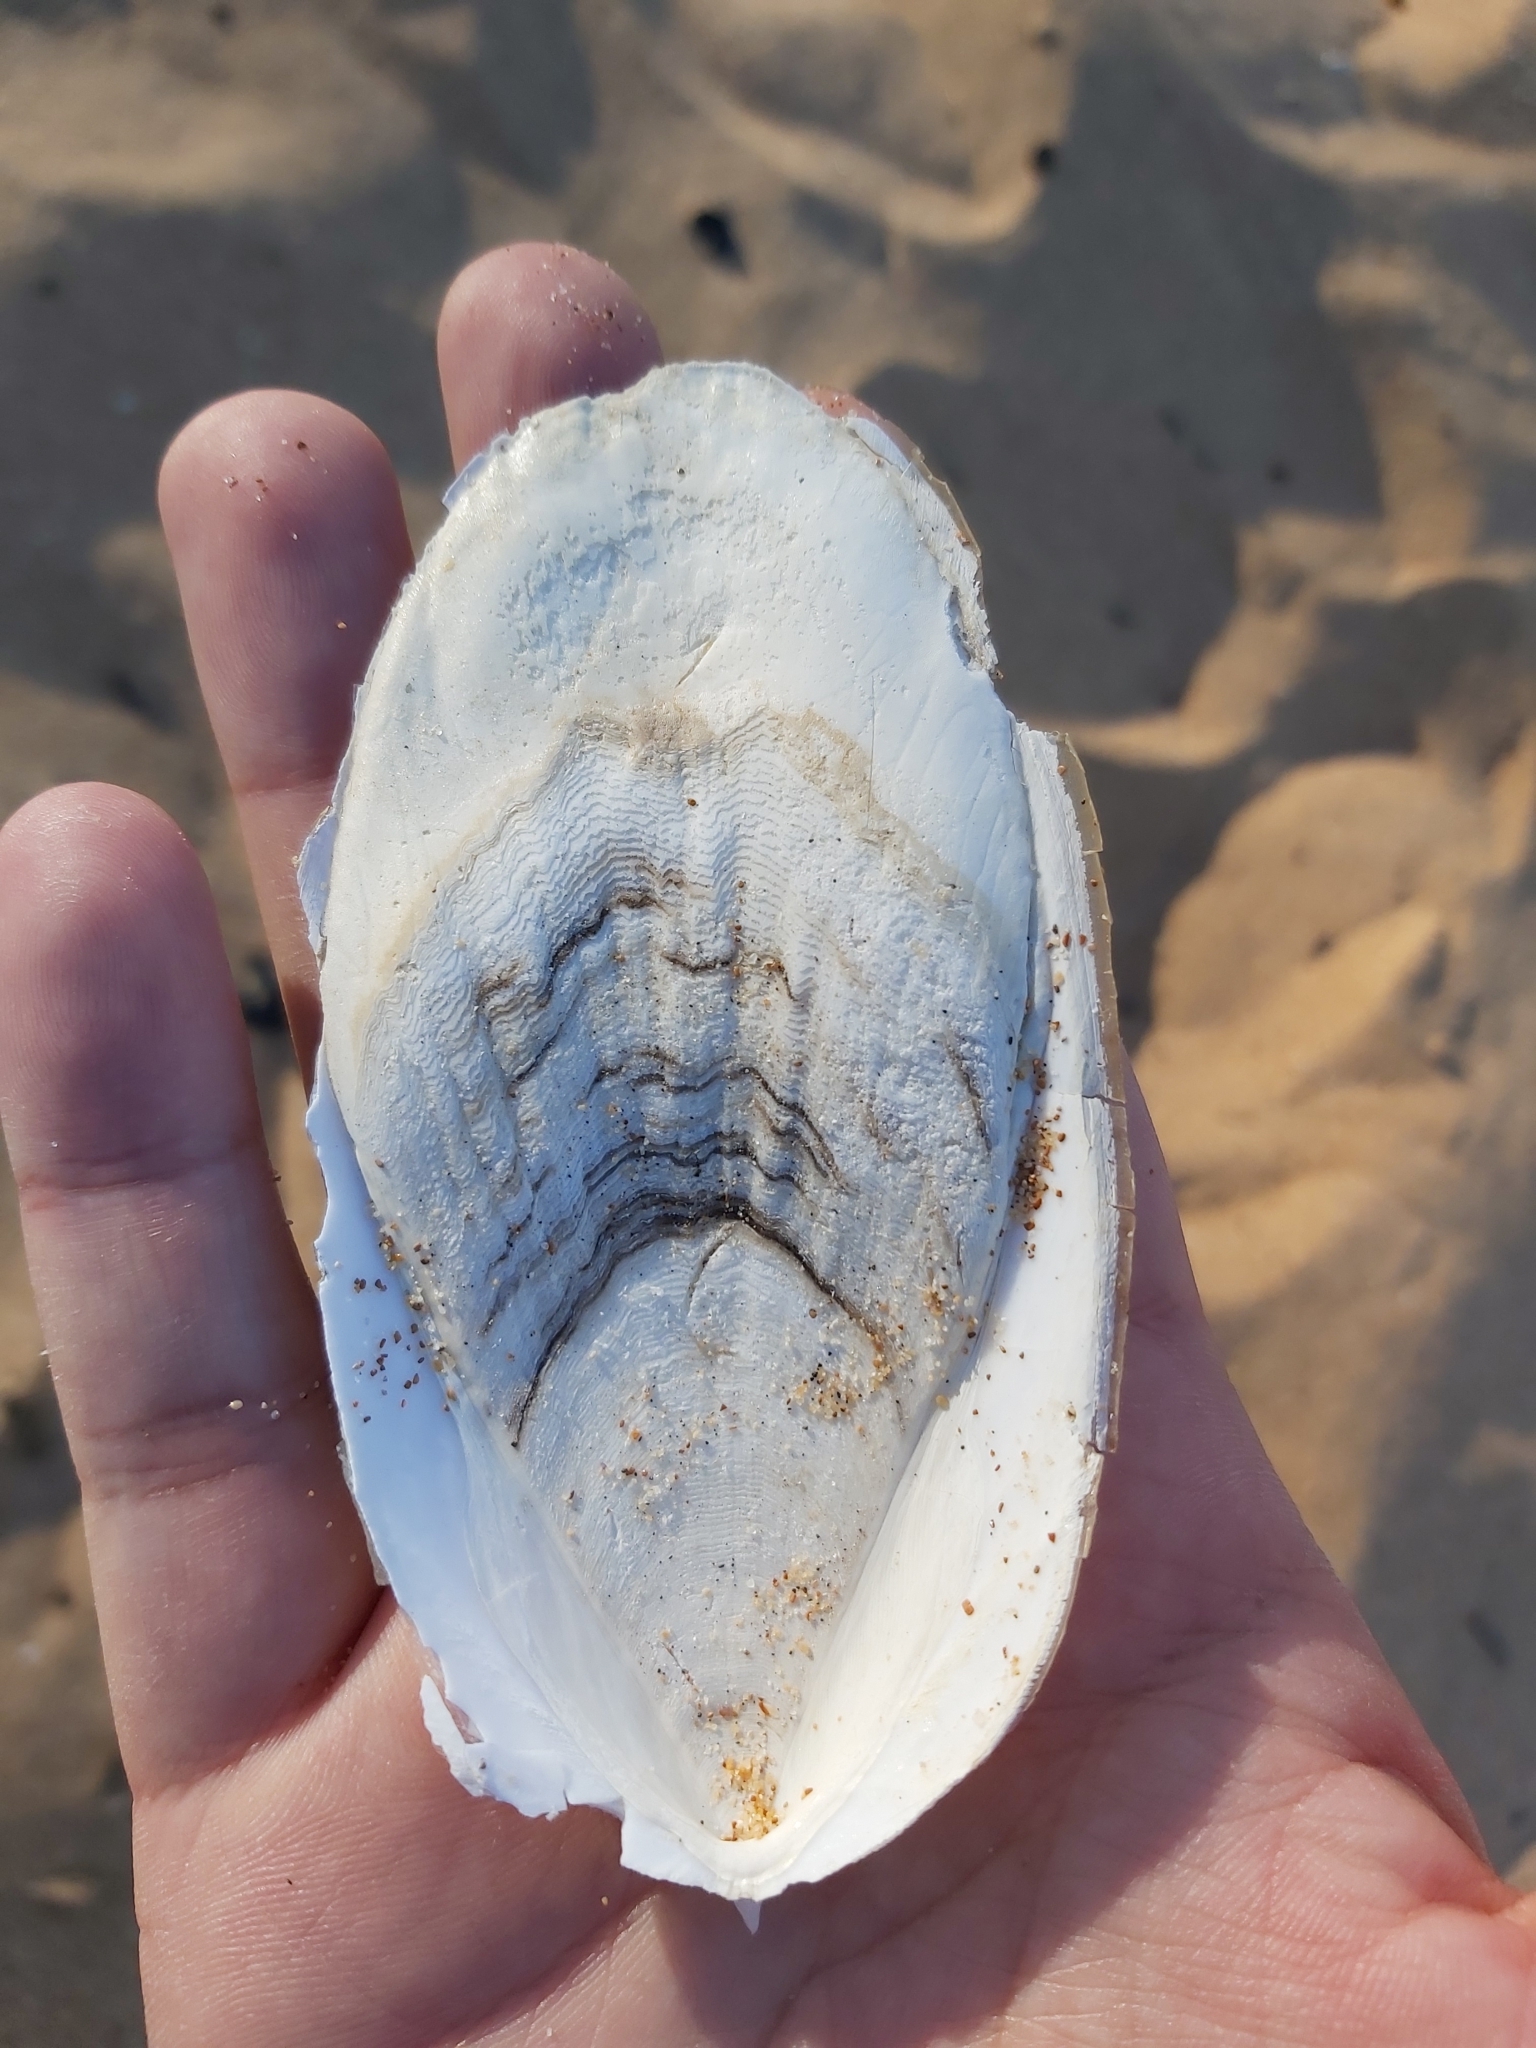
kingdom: Animalia
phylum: Mollusca
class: Cephalopoda
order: Sepiida
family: Sepiidae
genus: Ascarosepion
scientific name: Ascarosepion mestus
